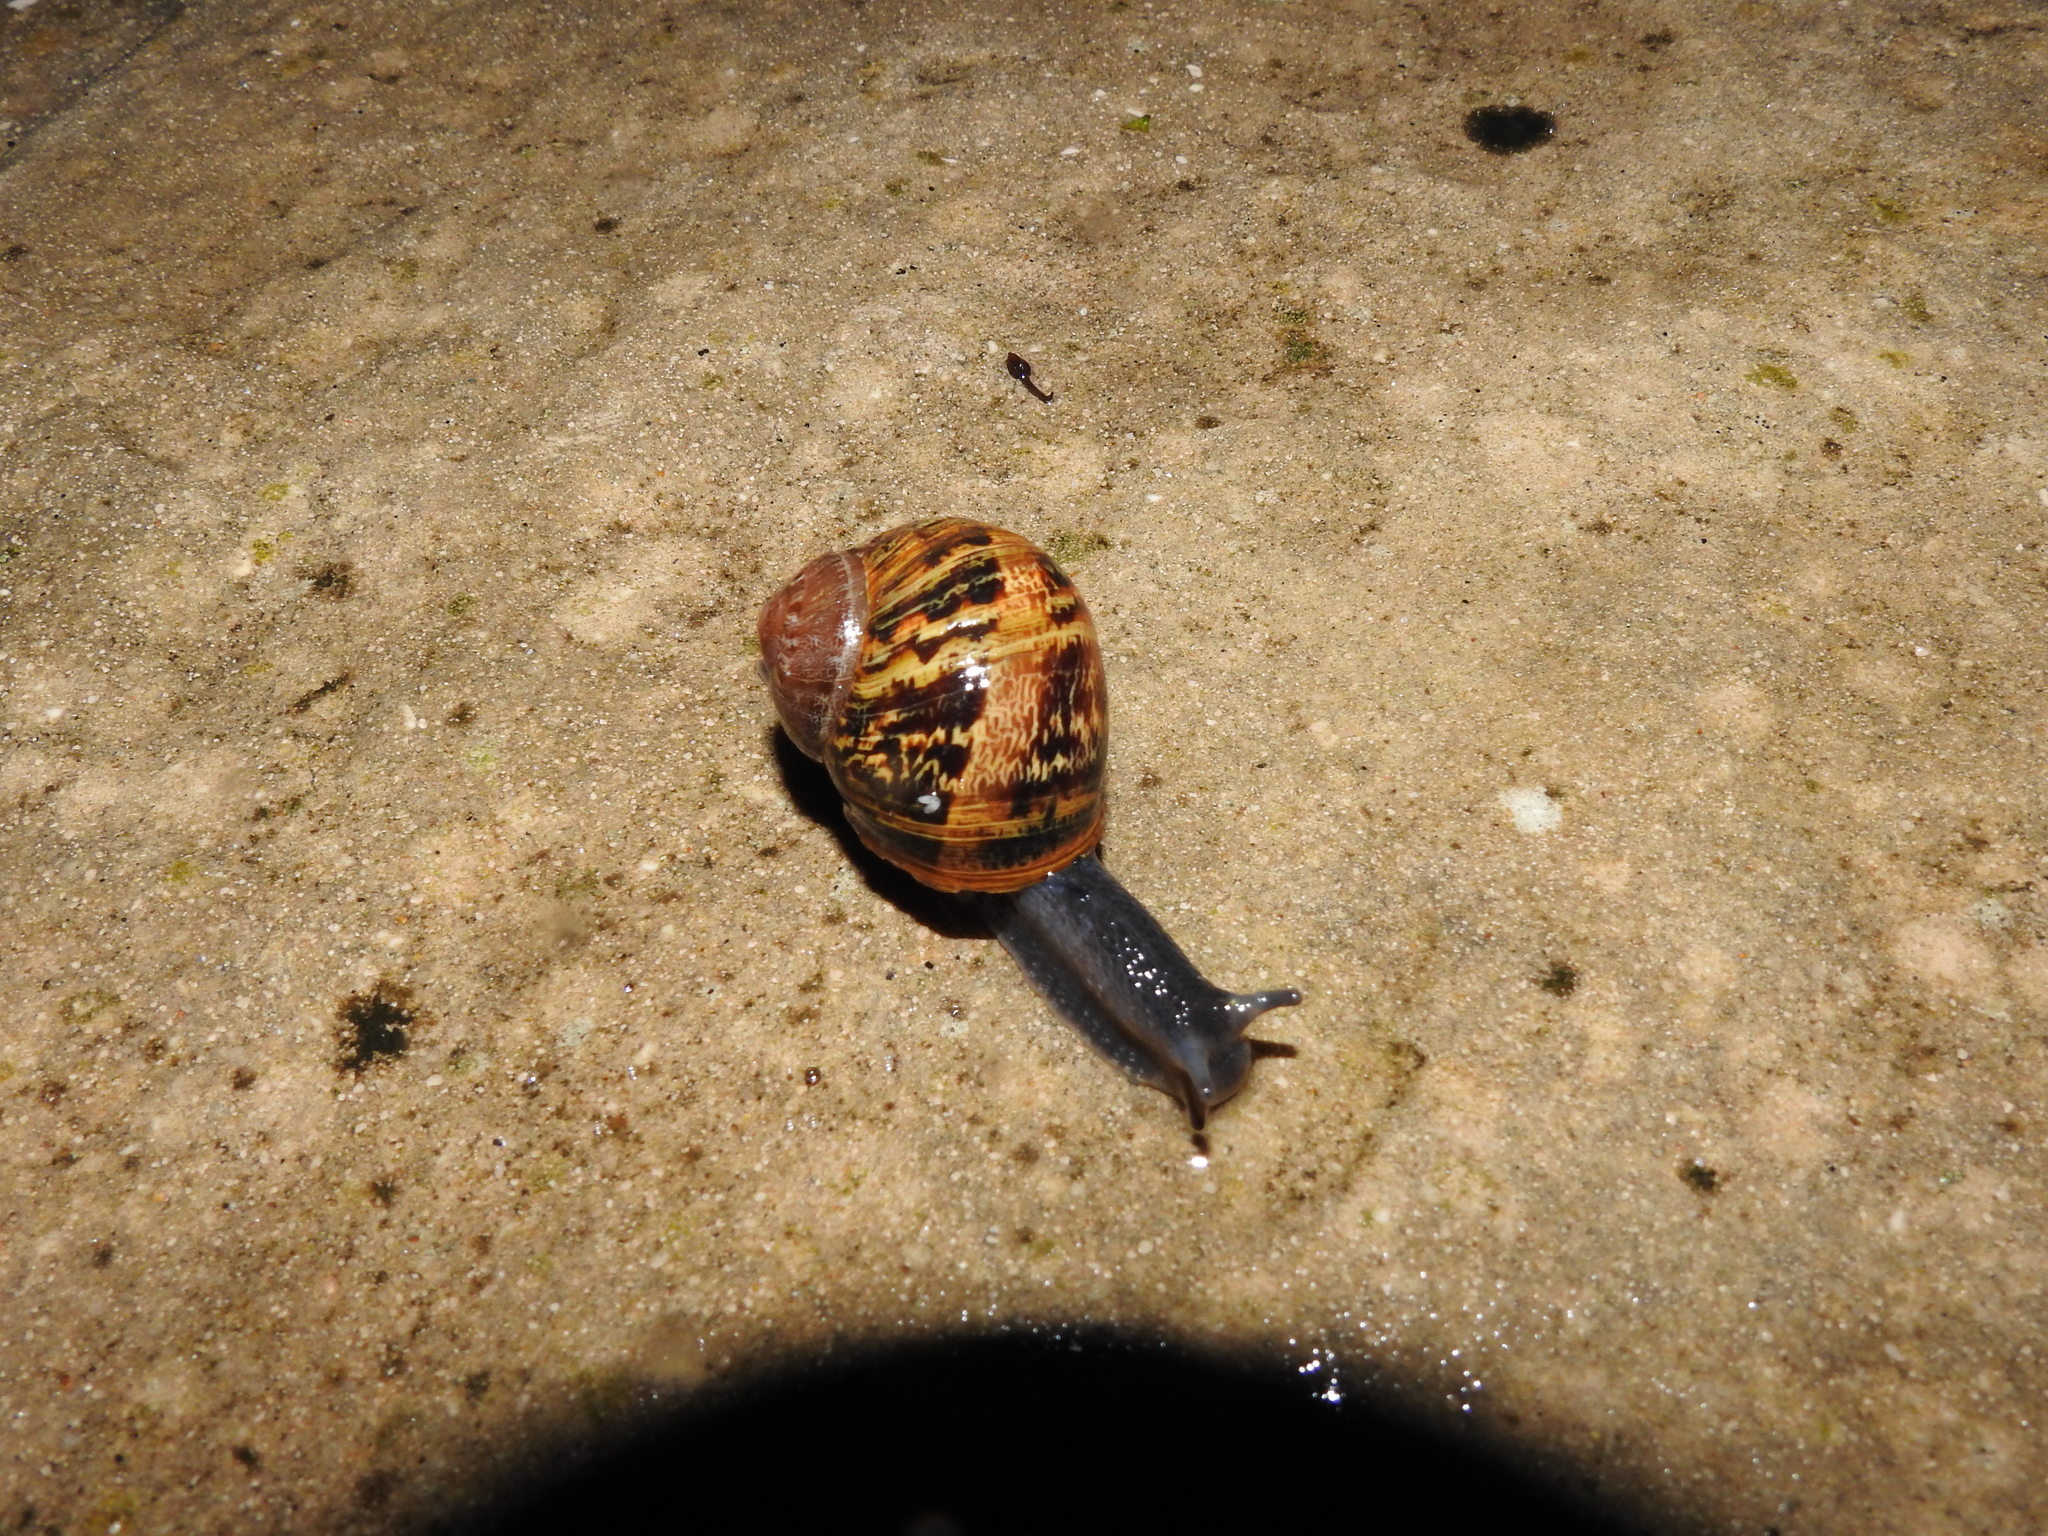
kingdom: Animalia
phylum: Mollusca
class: Gastropoda
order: Stylommatophora
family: Helicidae
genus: Cornu
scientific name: Cornu aspersum
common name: Brown garden snail
